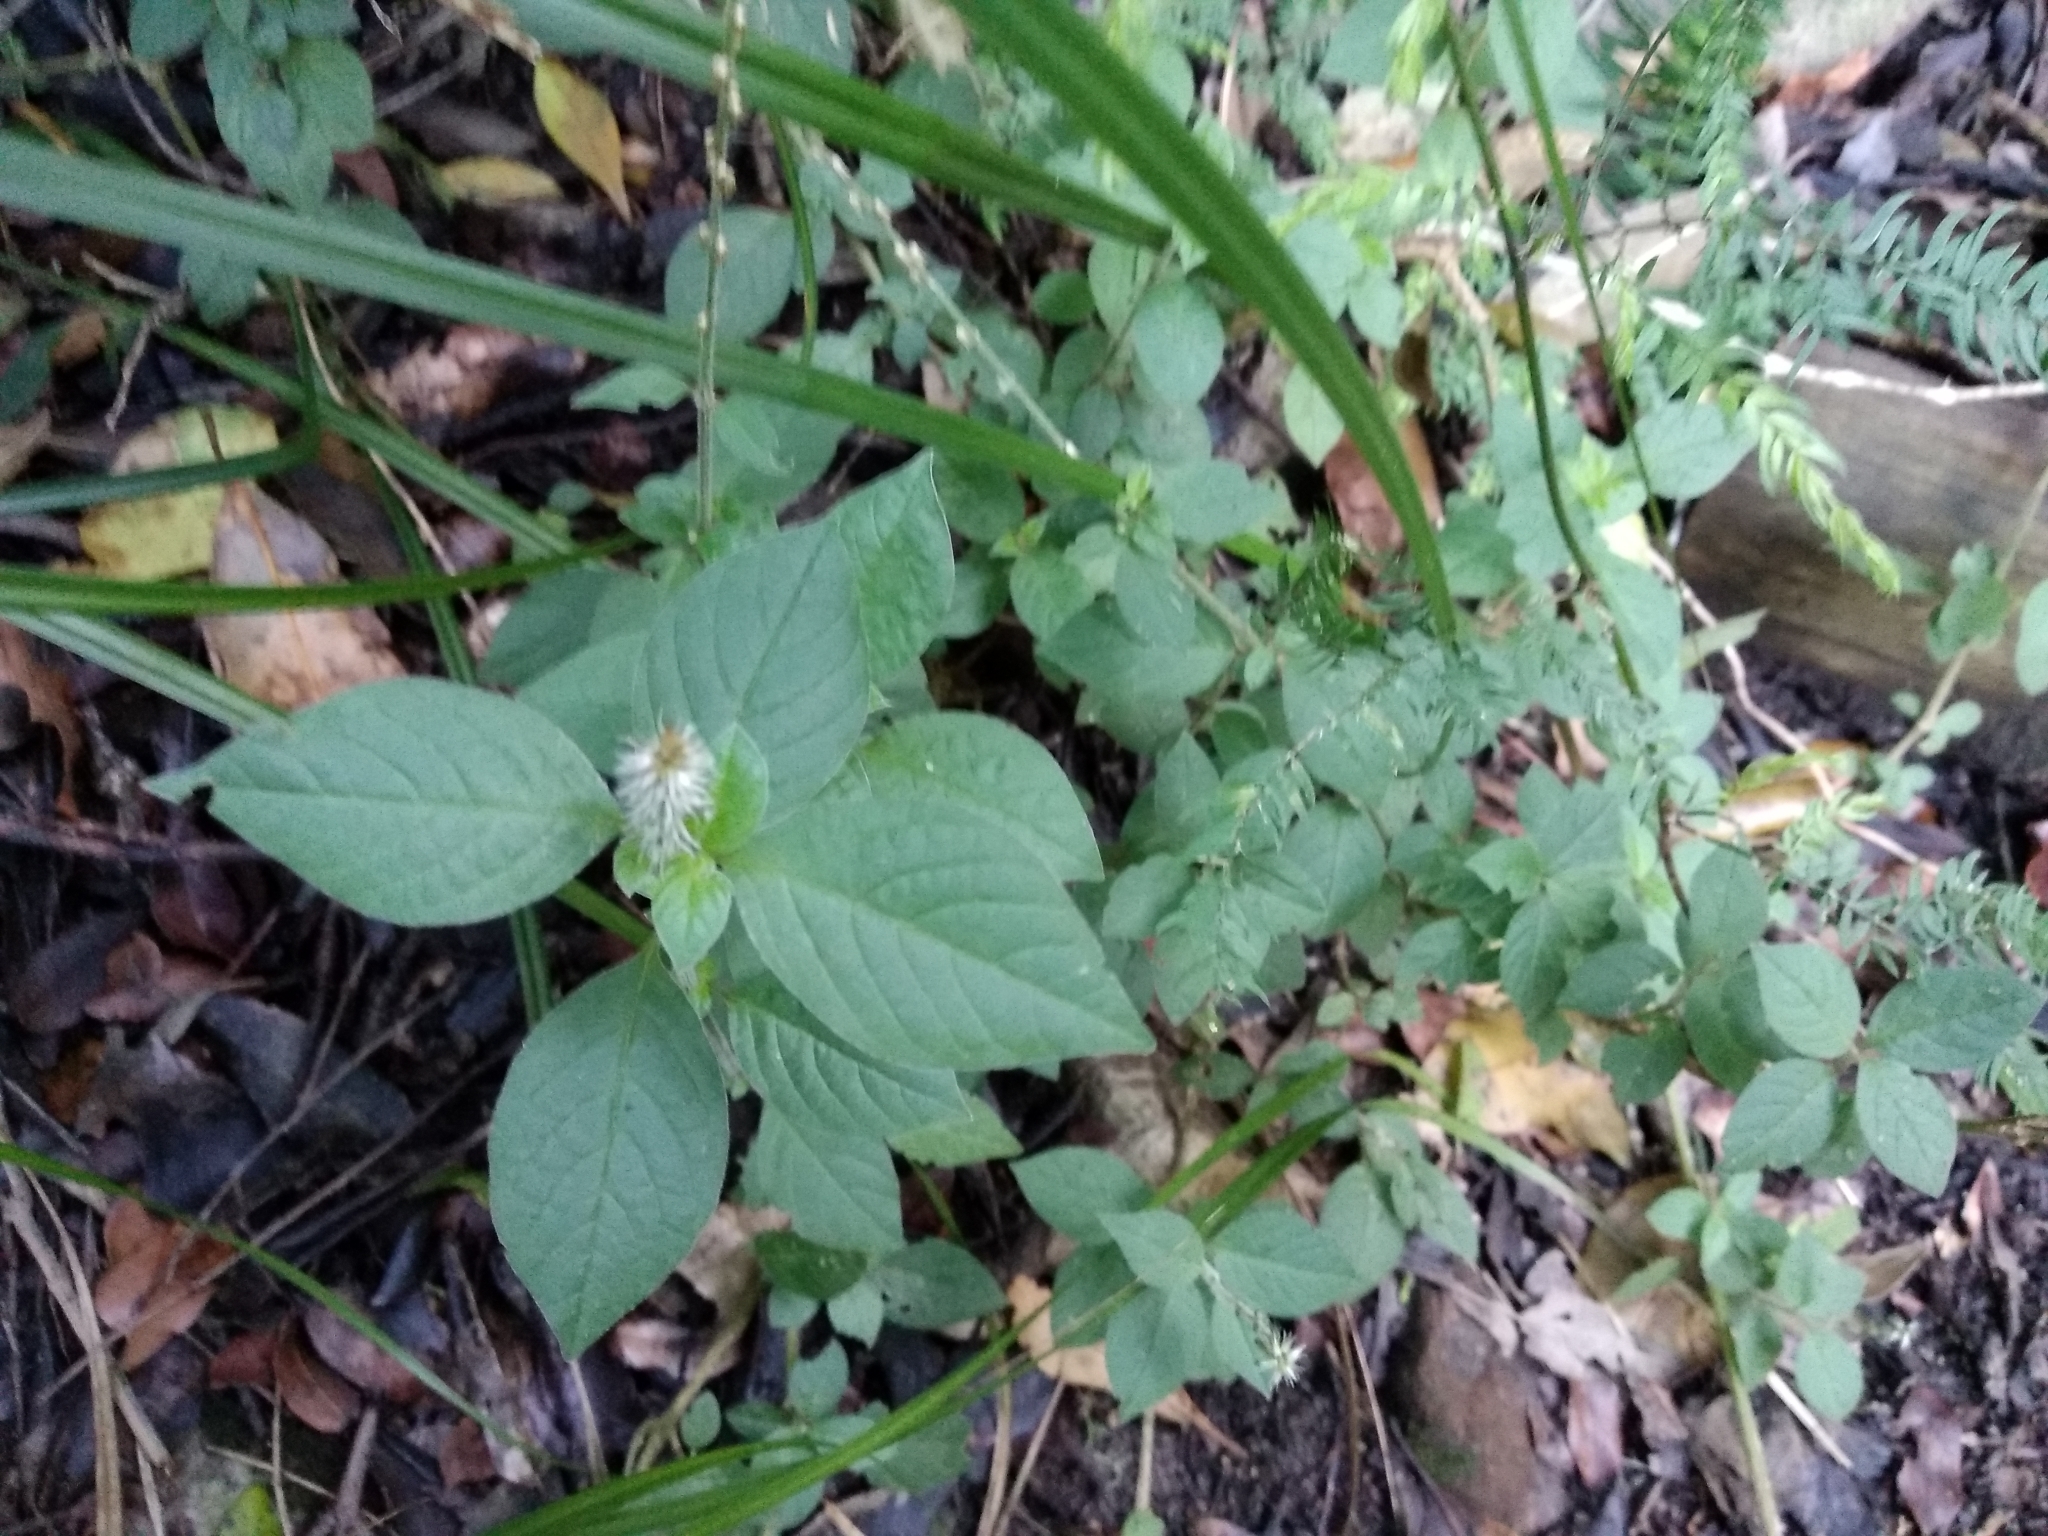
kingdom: Plantae
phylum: Tracheophyta
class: Magnoliopsida
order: Caryophyllales
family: Amaranthaceae
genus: Achyranthes
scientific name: Achyranthes aspera
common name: Devil's horsewhip
